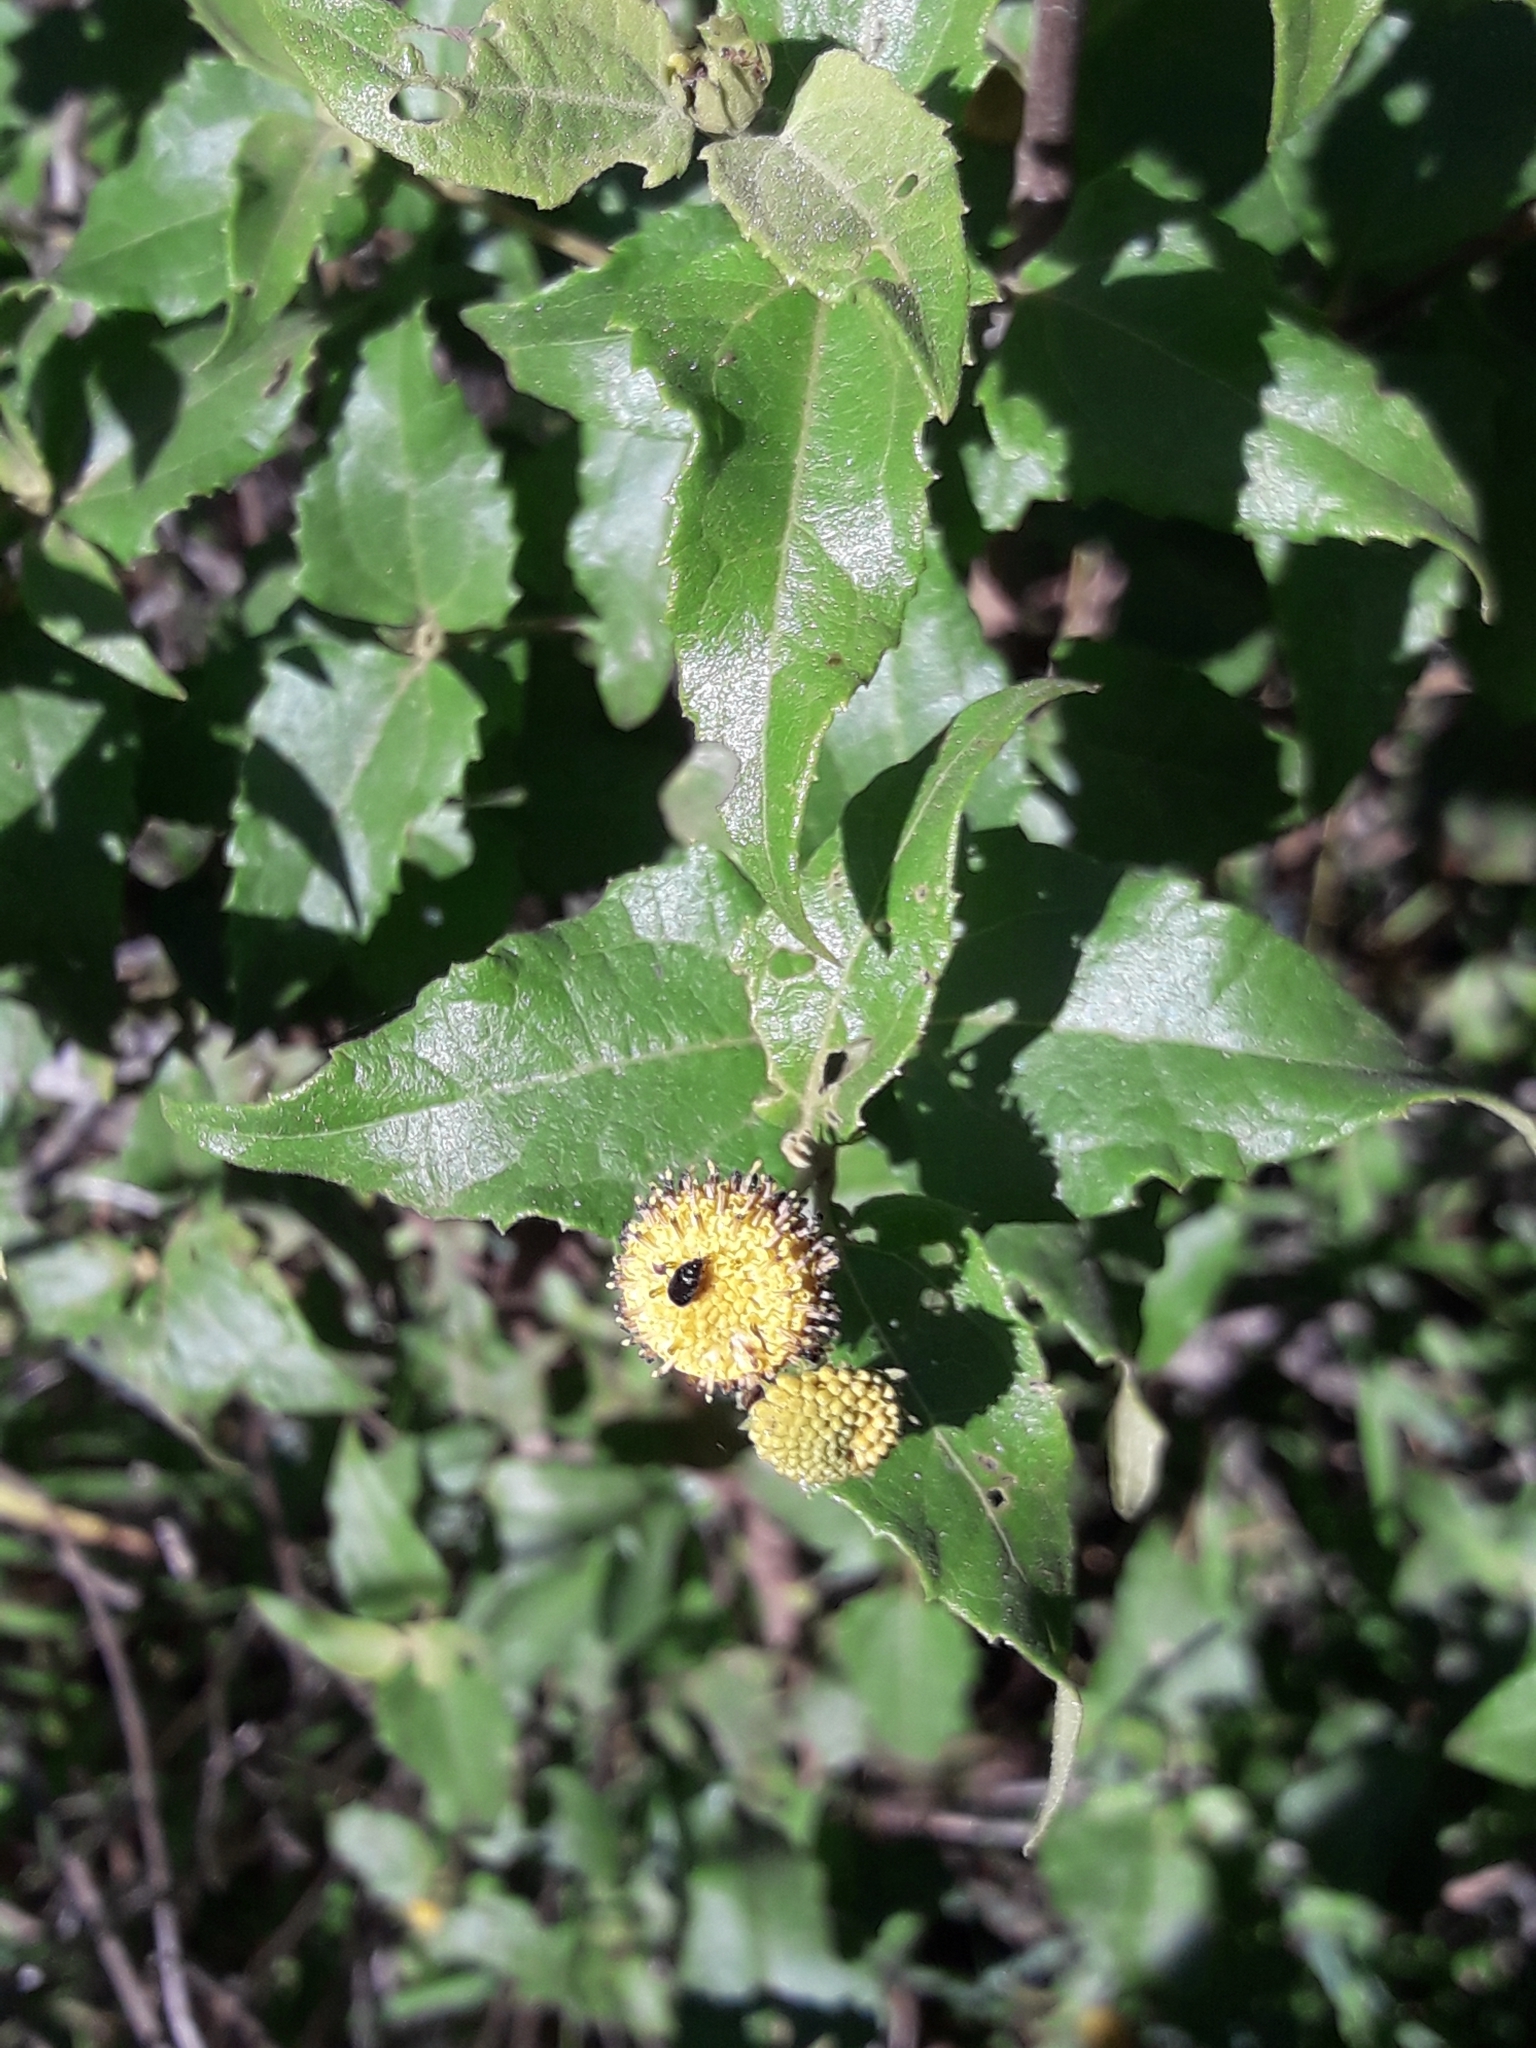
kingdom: Plantae
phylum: Tracheophyta
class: Magnoliopsida
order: Asterales
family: Asteraceae
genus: Podanthus
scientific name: Podanthus ovatifolius
